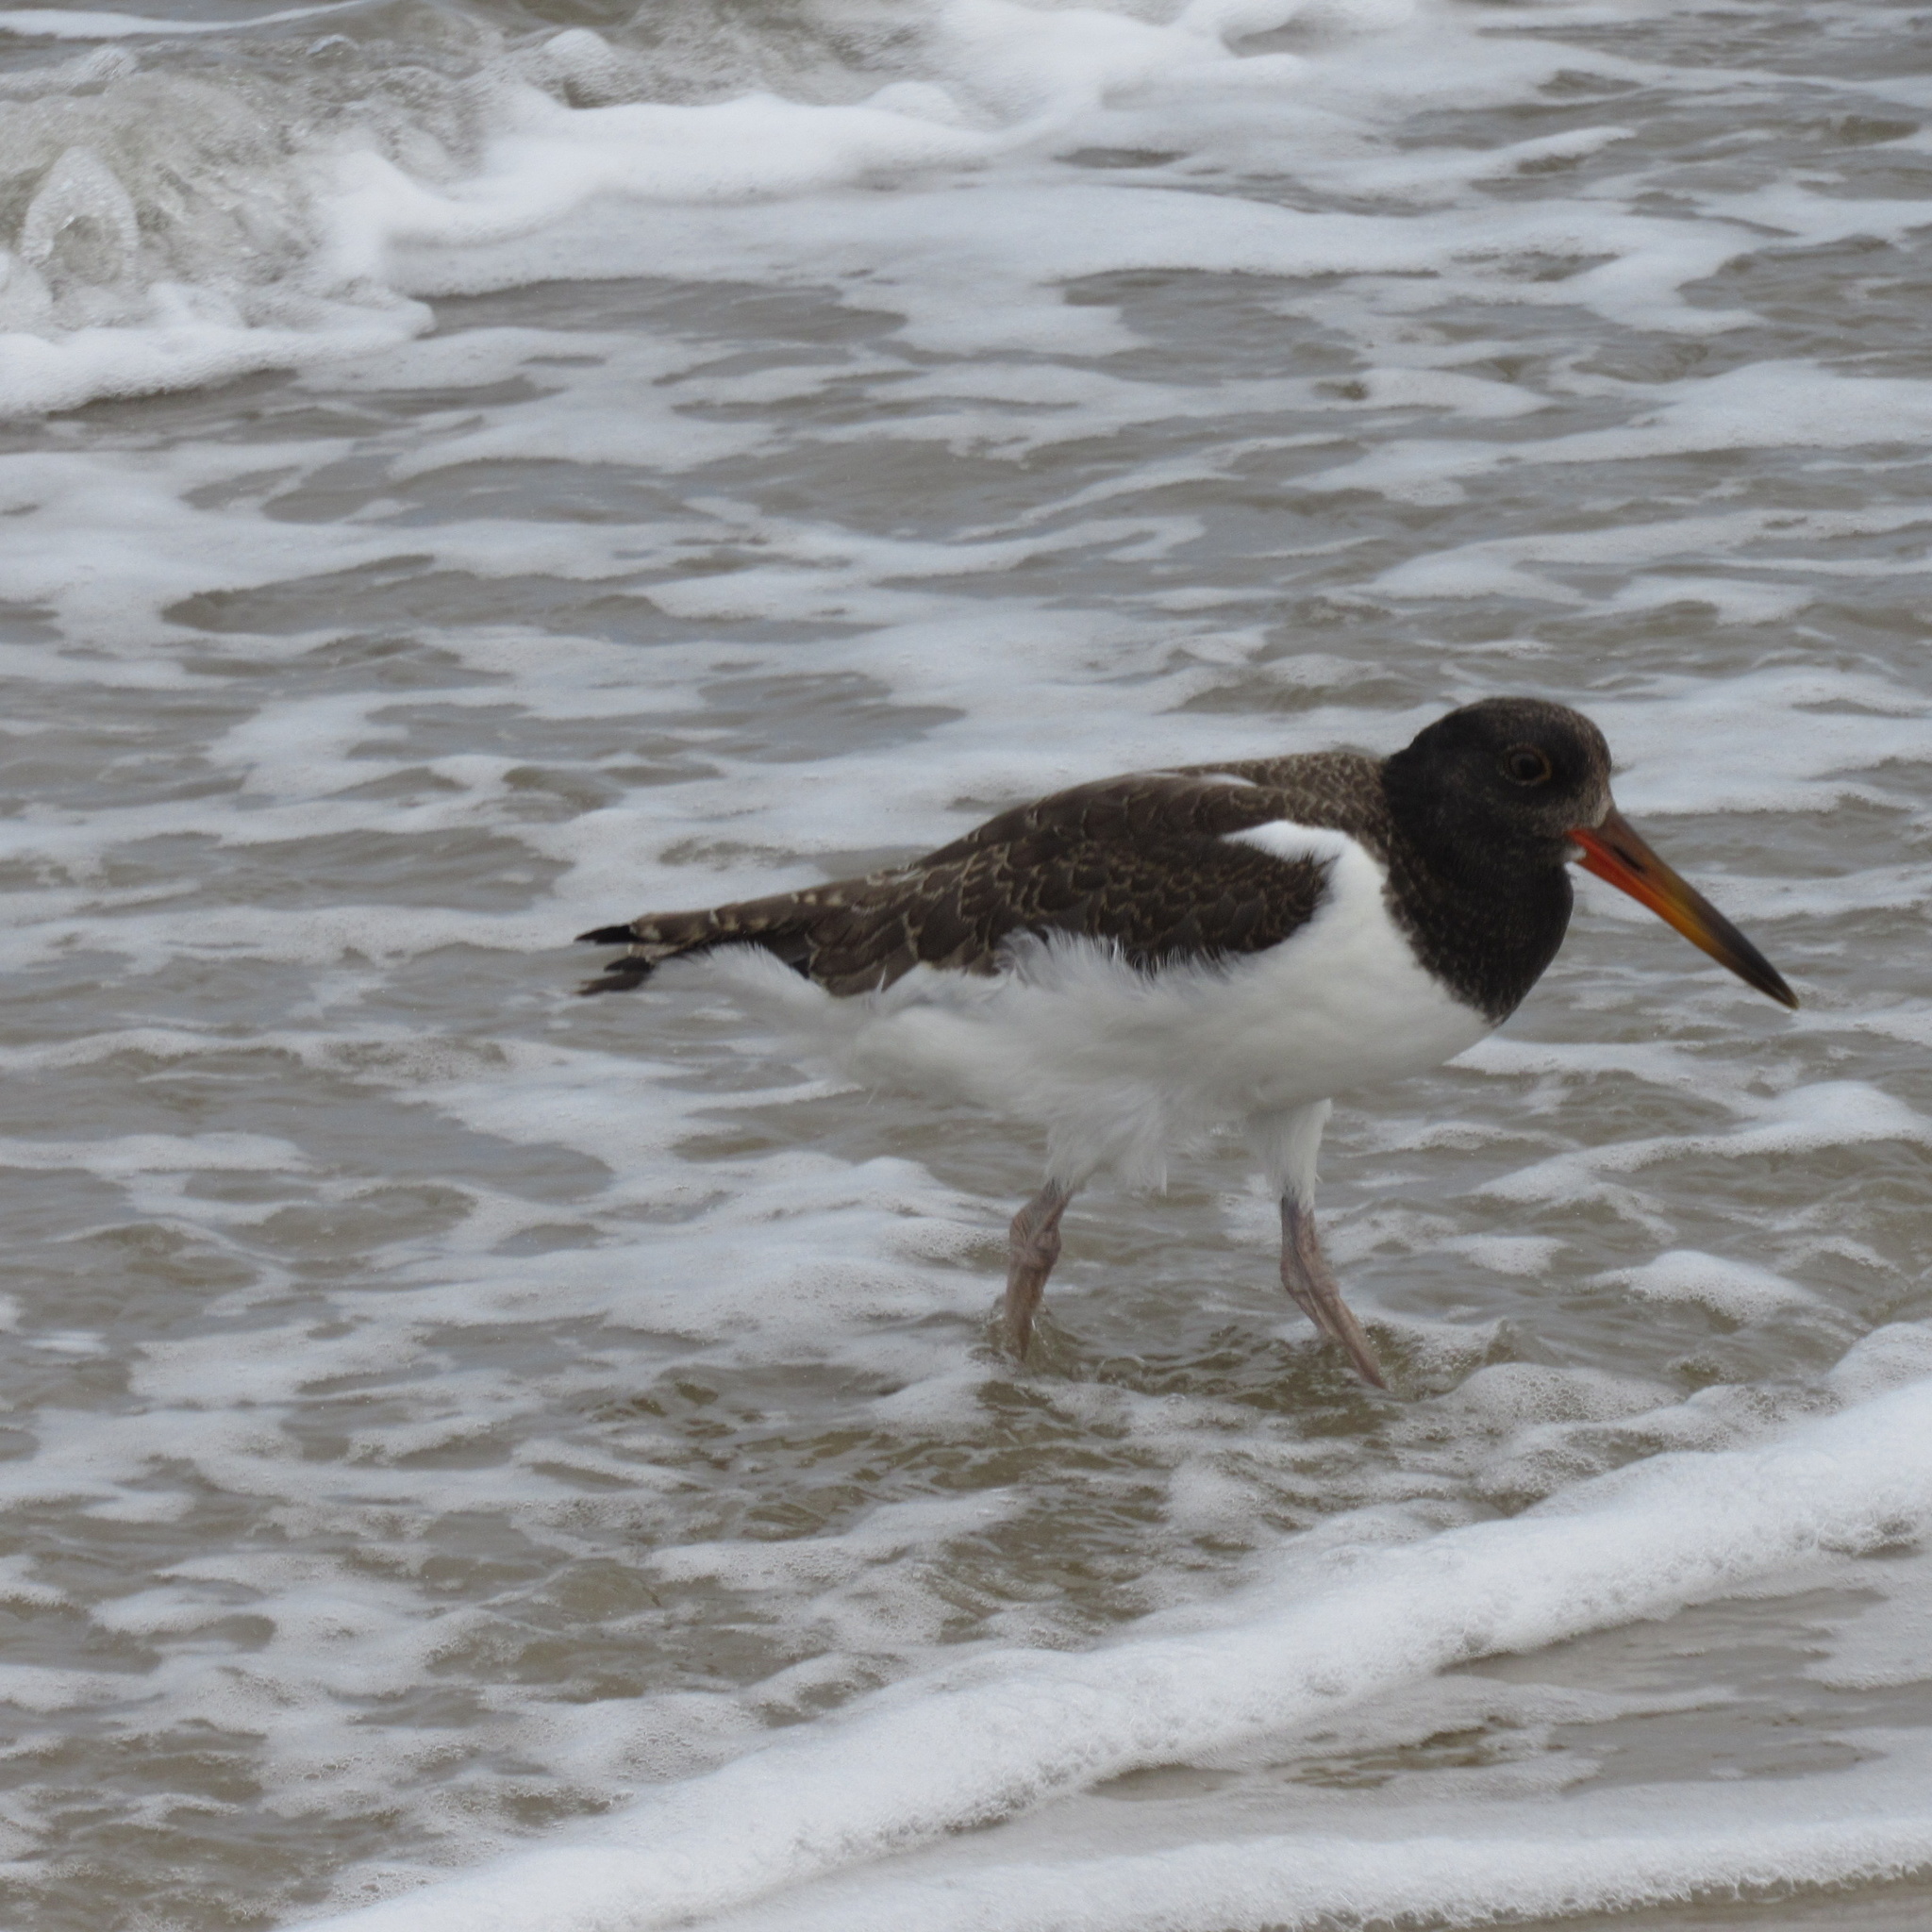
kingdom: Animalia
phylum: Chordata
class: Aves
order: Charadriiformes
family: Haematopodidae
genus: Haematopus
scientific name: Haematopus palliatus
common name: American oystercatcher
